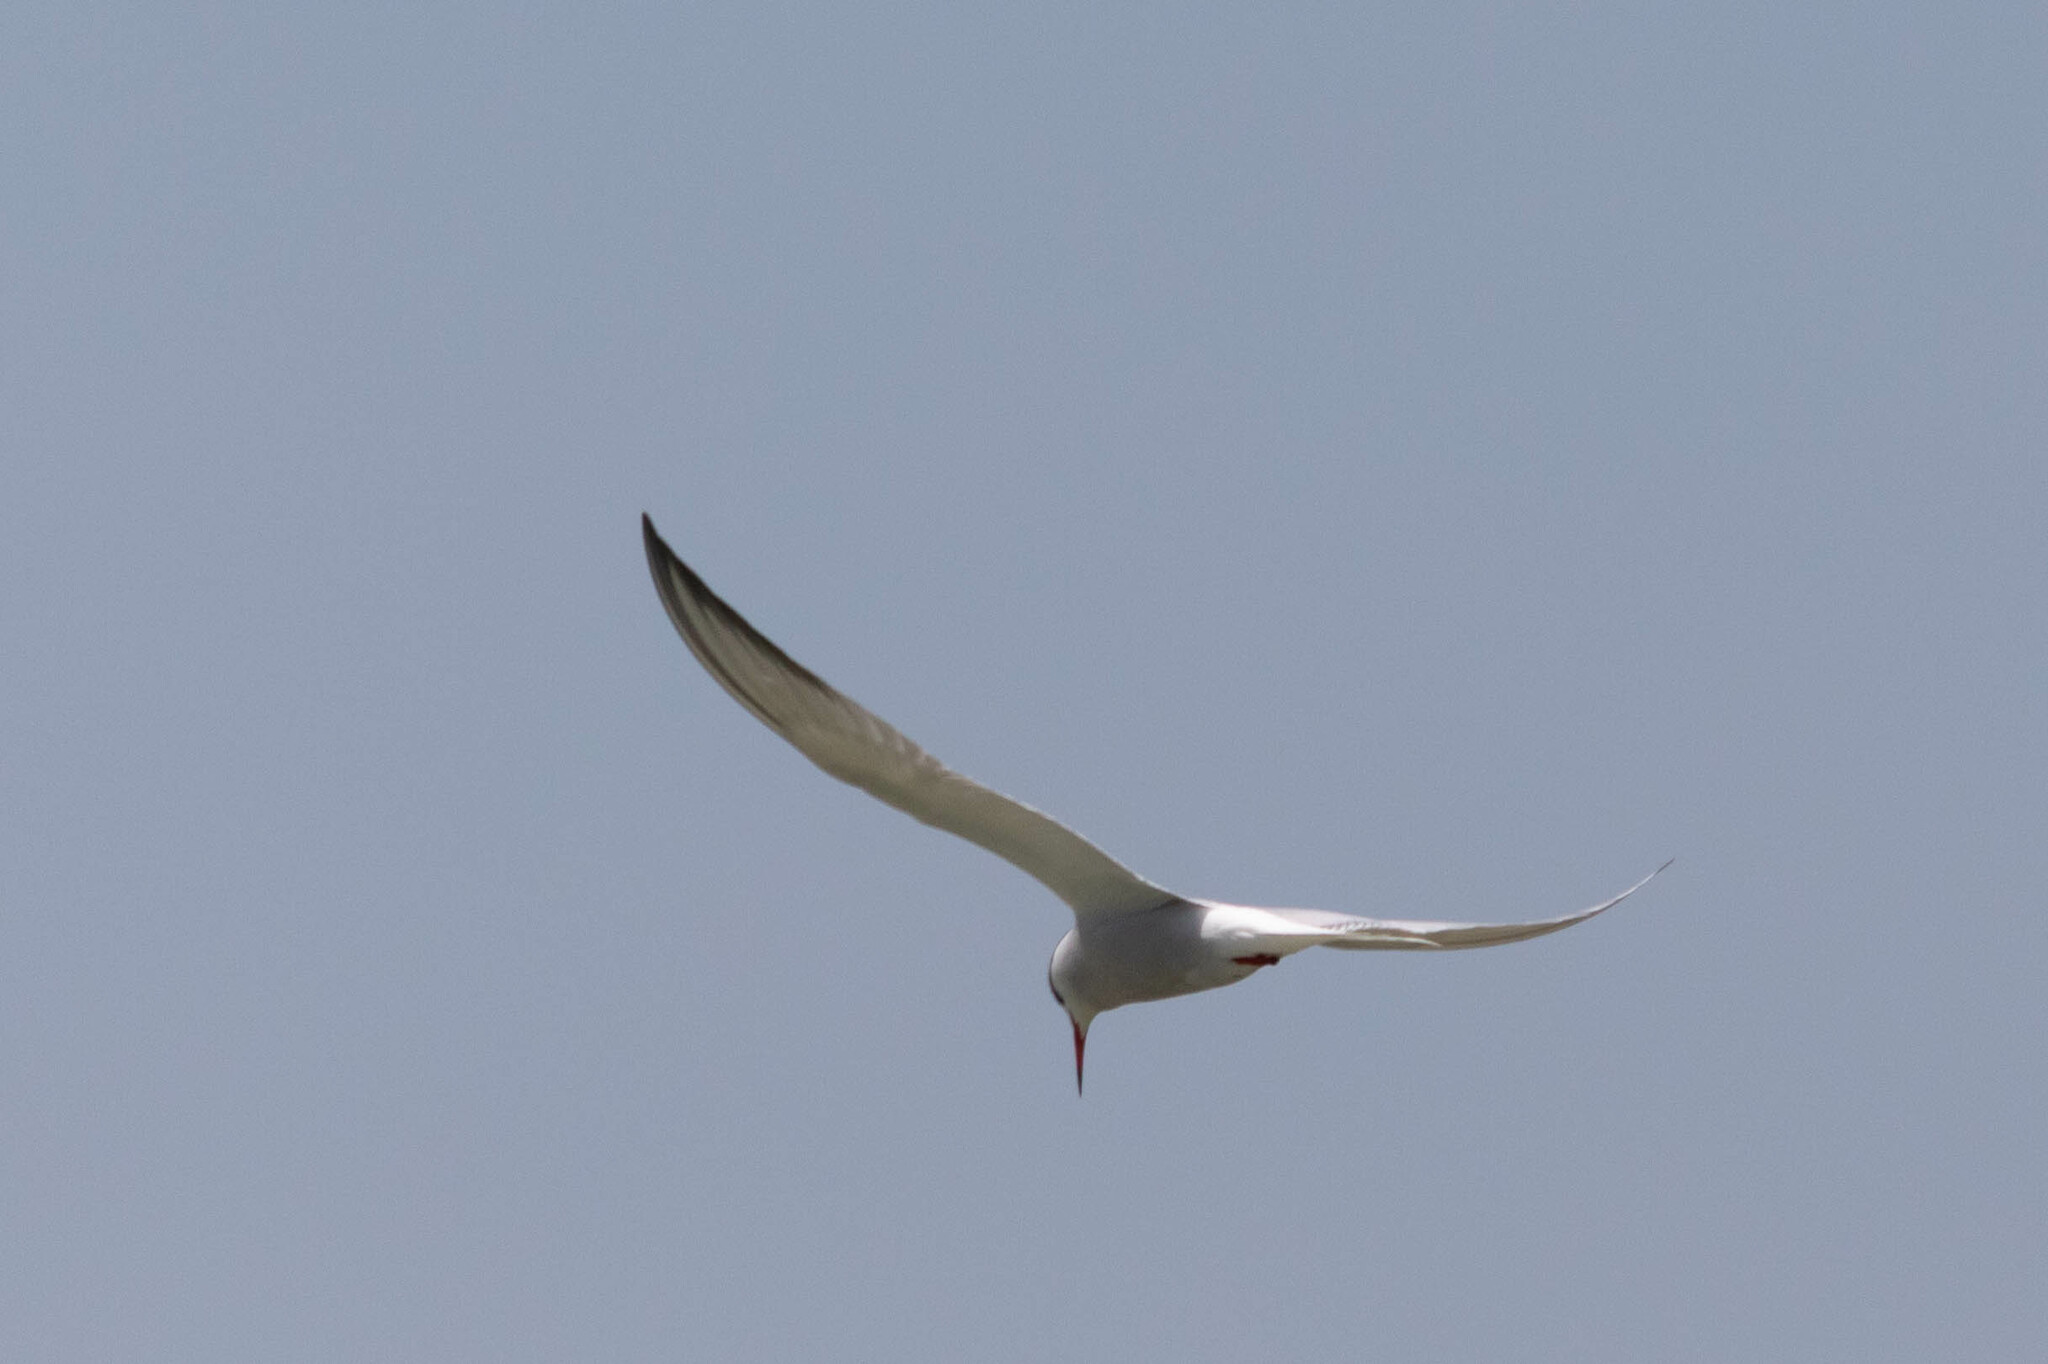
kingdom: Animalia
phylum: Chordata
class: Aves
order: Charadriiformes
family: Laridae
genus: Sterna
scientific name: Sterna hirundo
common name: Common tern
